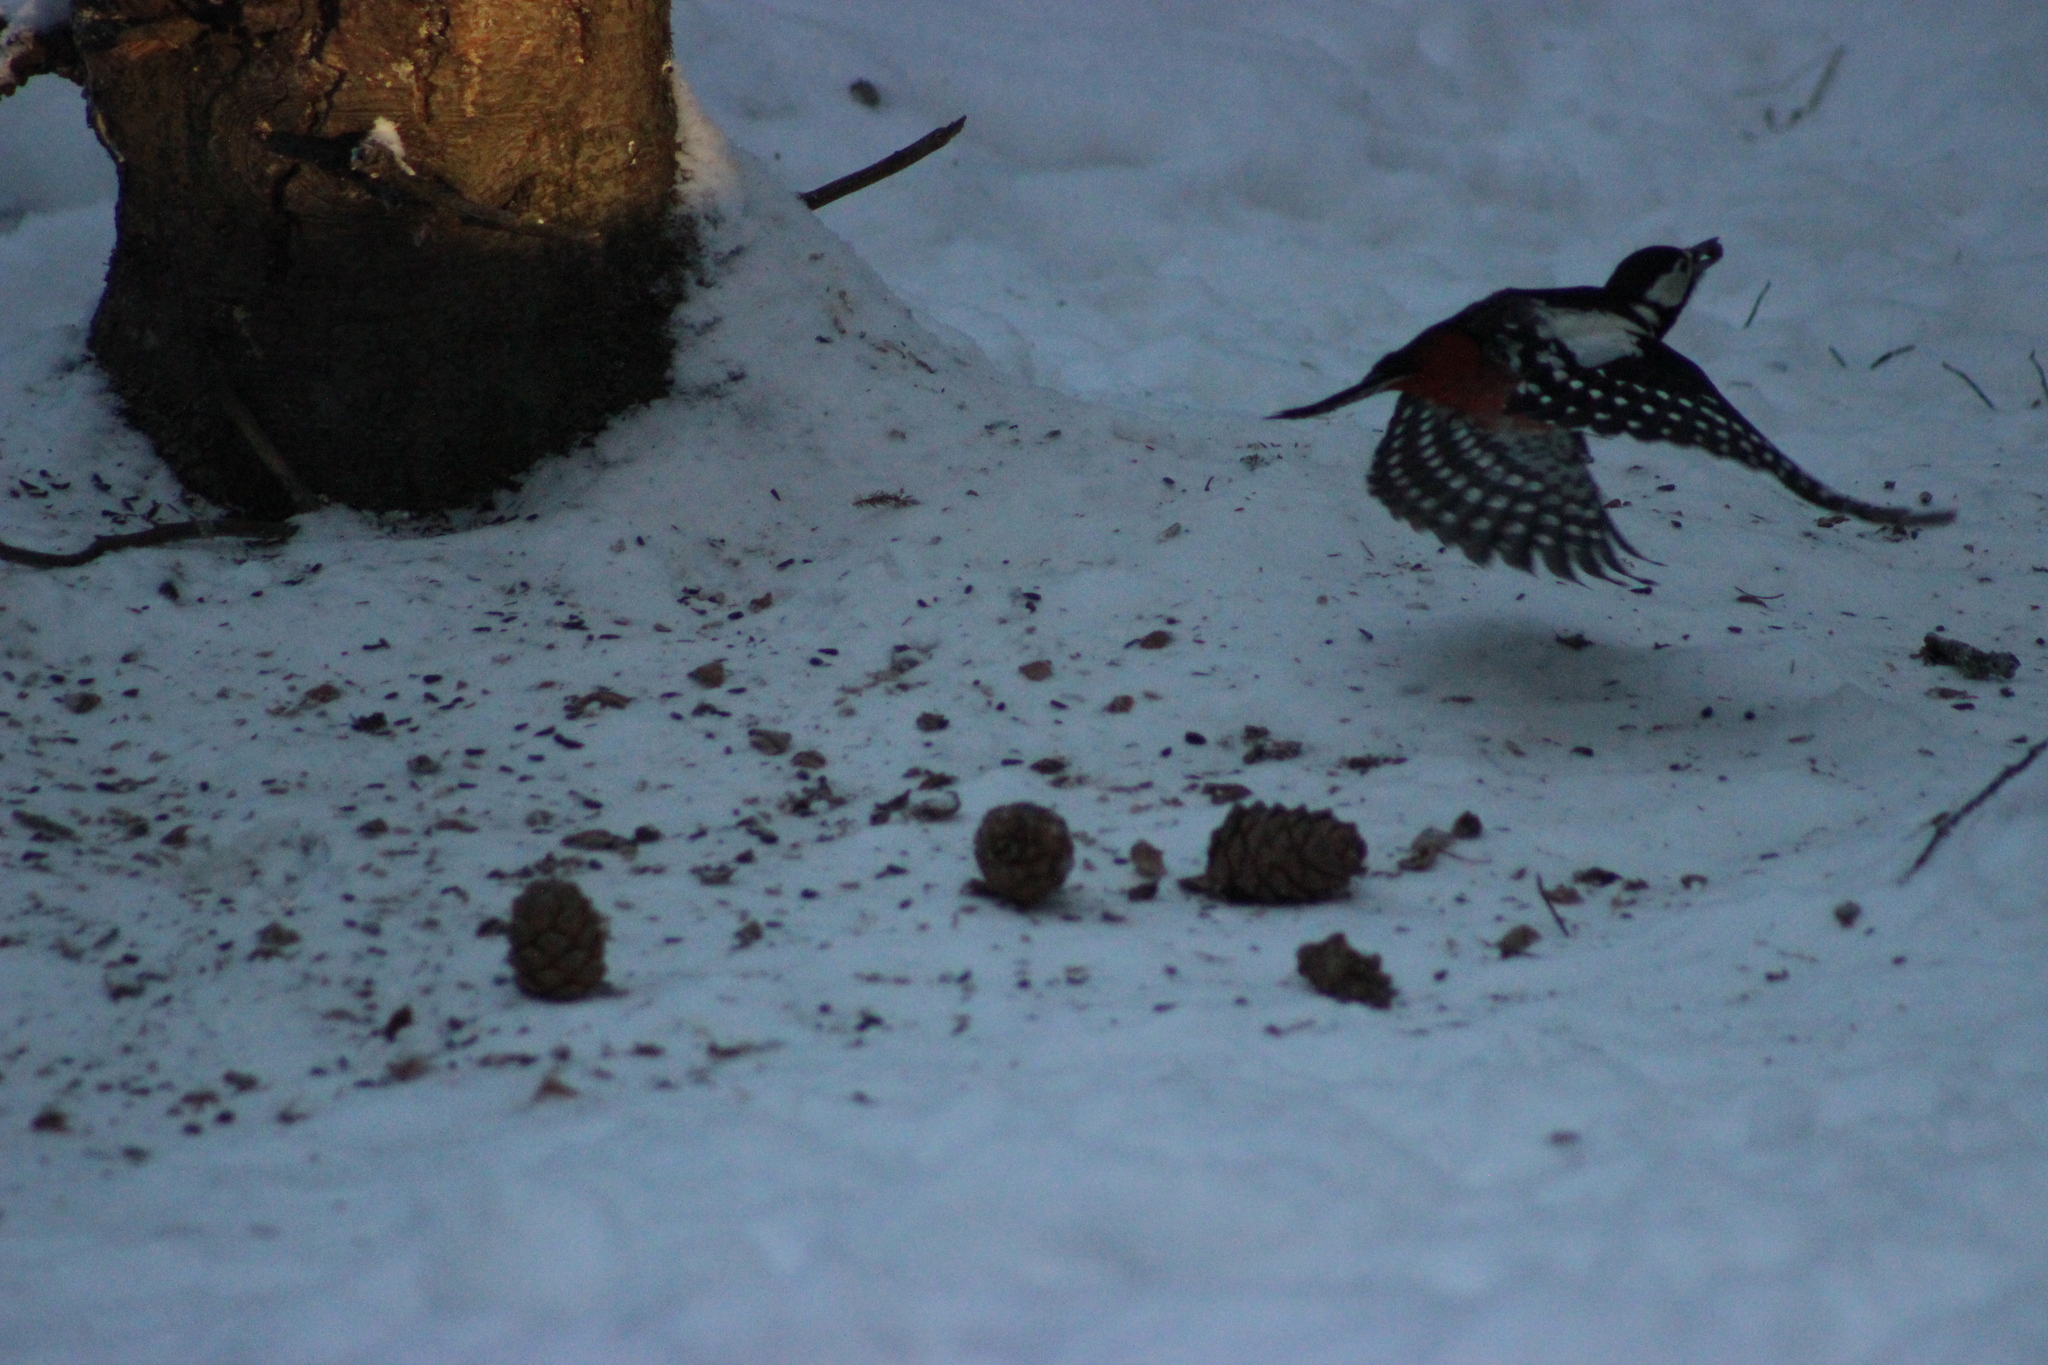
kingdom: Animalia
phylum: Chordata
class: Aves
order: Piciformes
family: Picidae
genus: Dendrocopos
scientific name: Dendrocopos major
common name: Great spotted woodpecker
